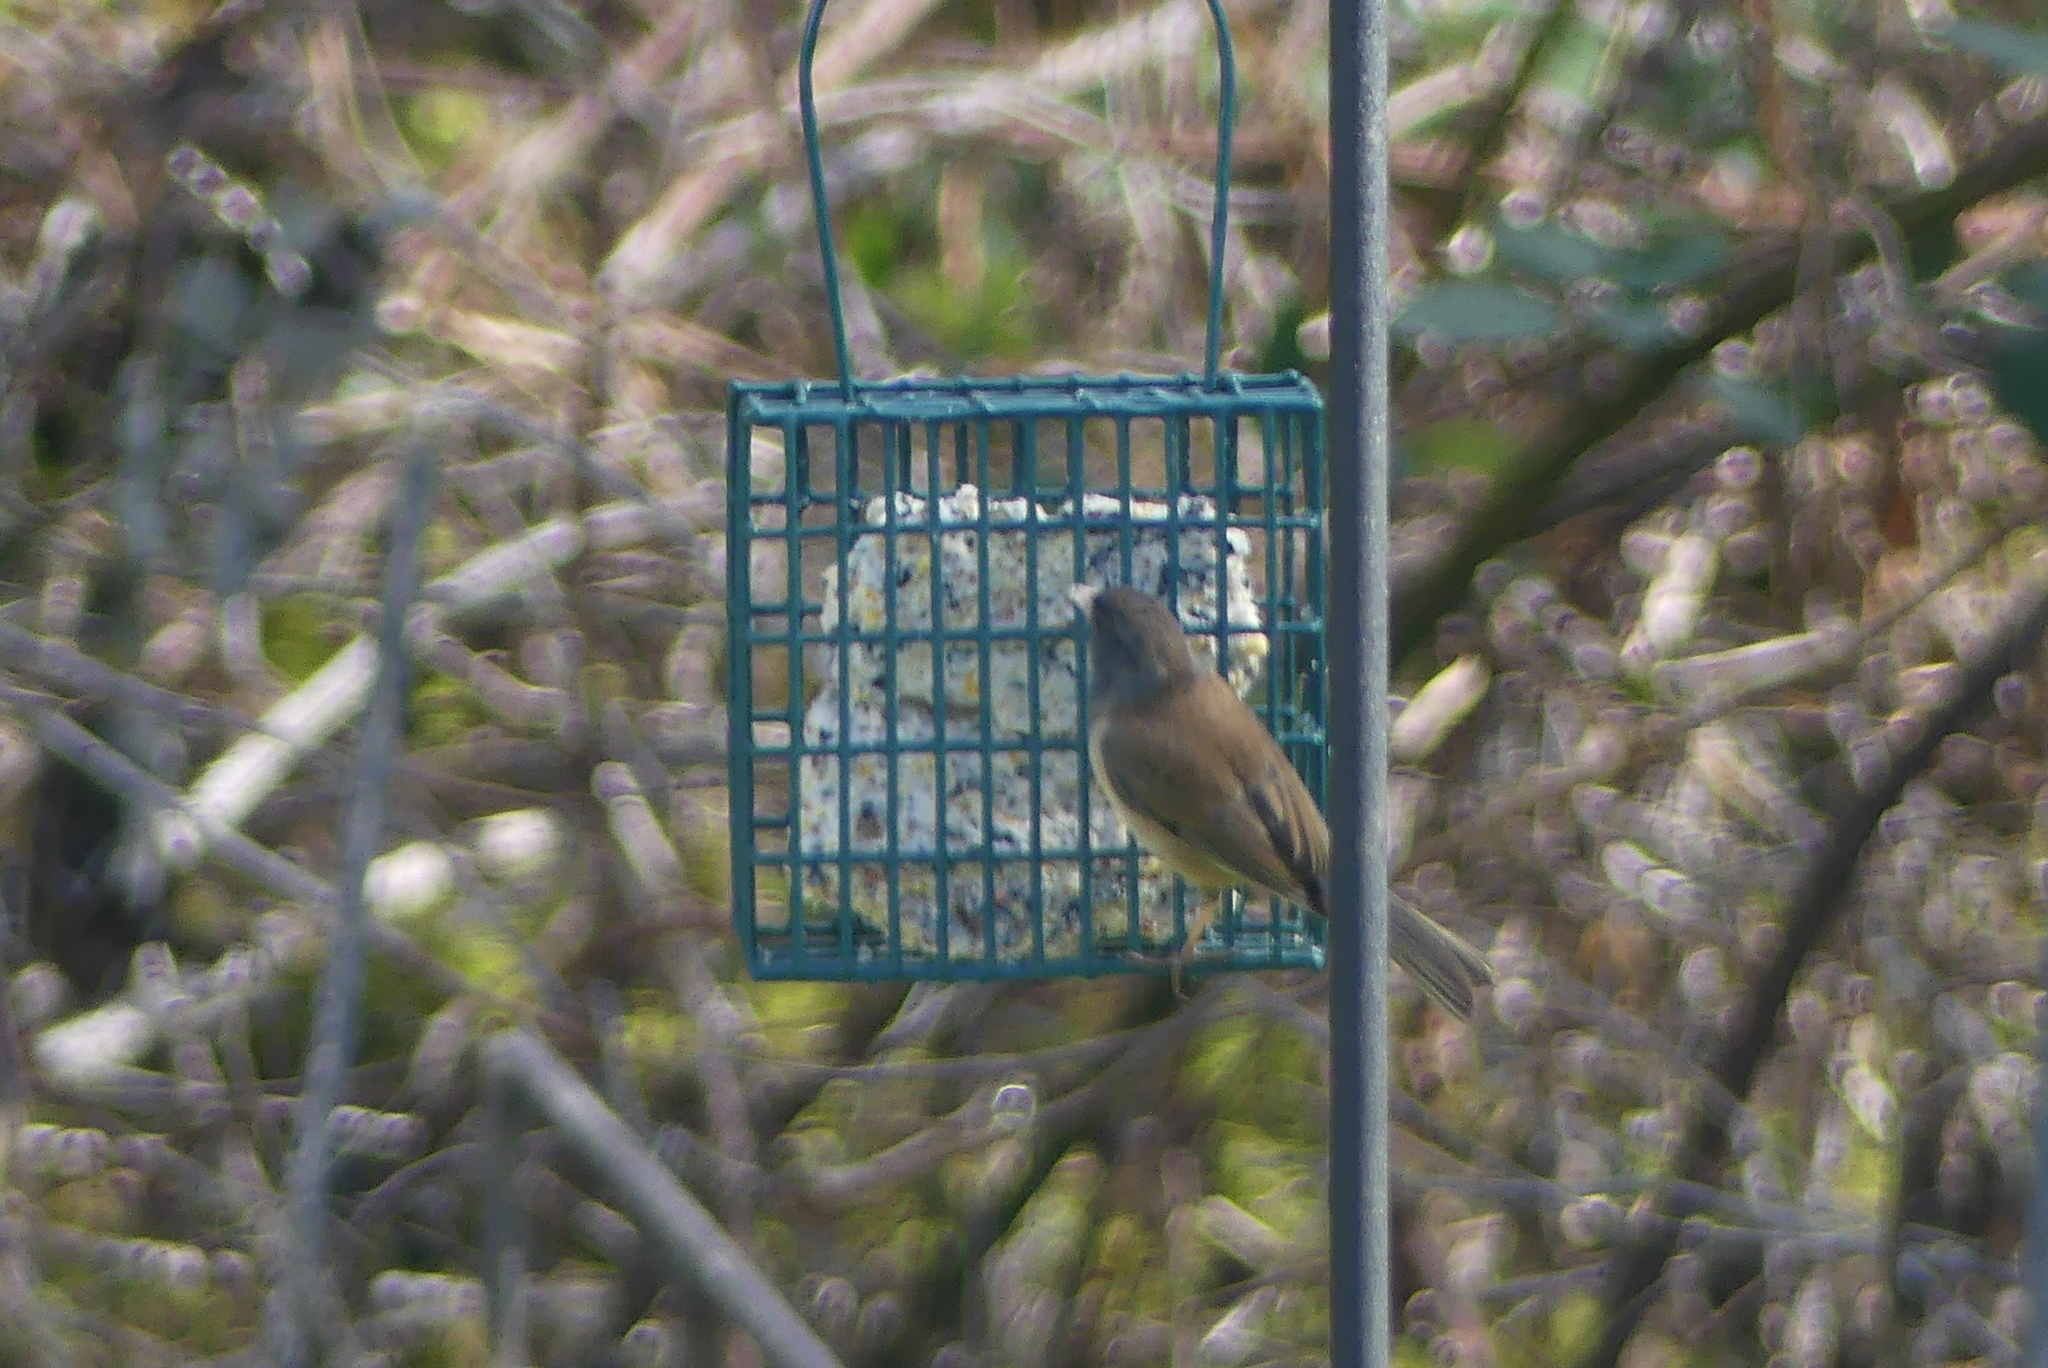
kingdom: Animalia
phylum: Chordata
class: Aves
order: Passeriformes
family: Passerellidae
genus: Junco
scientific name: Junco hyemalis
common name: Dark-eyed junco
